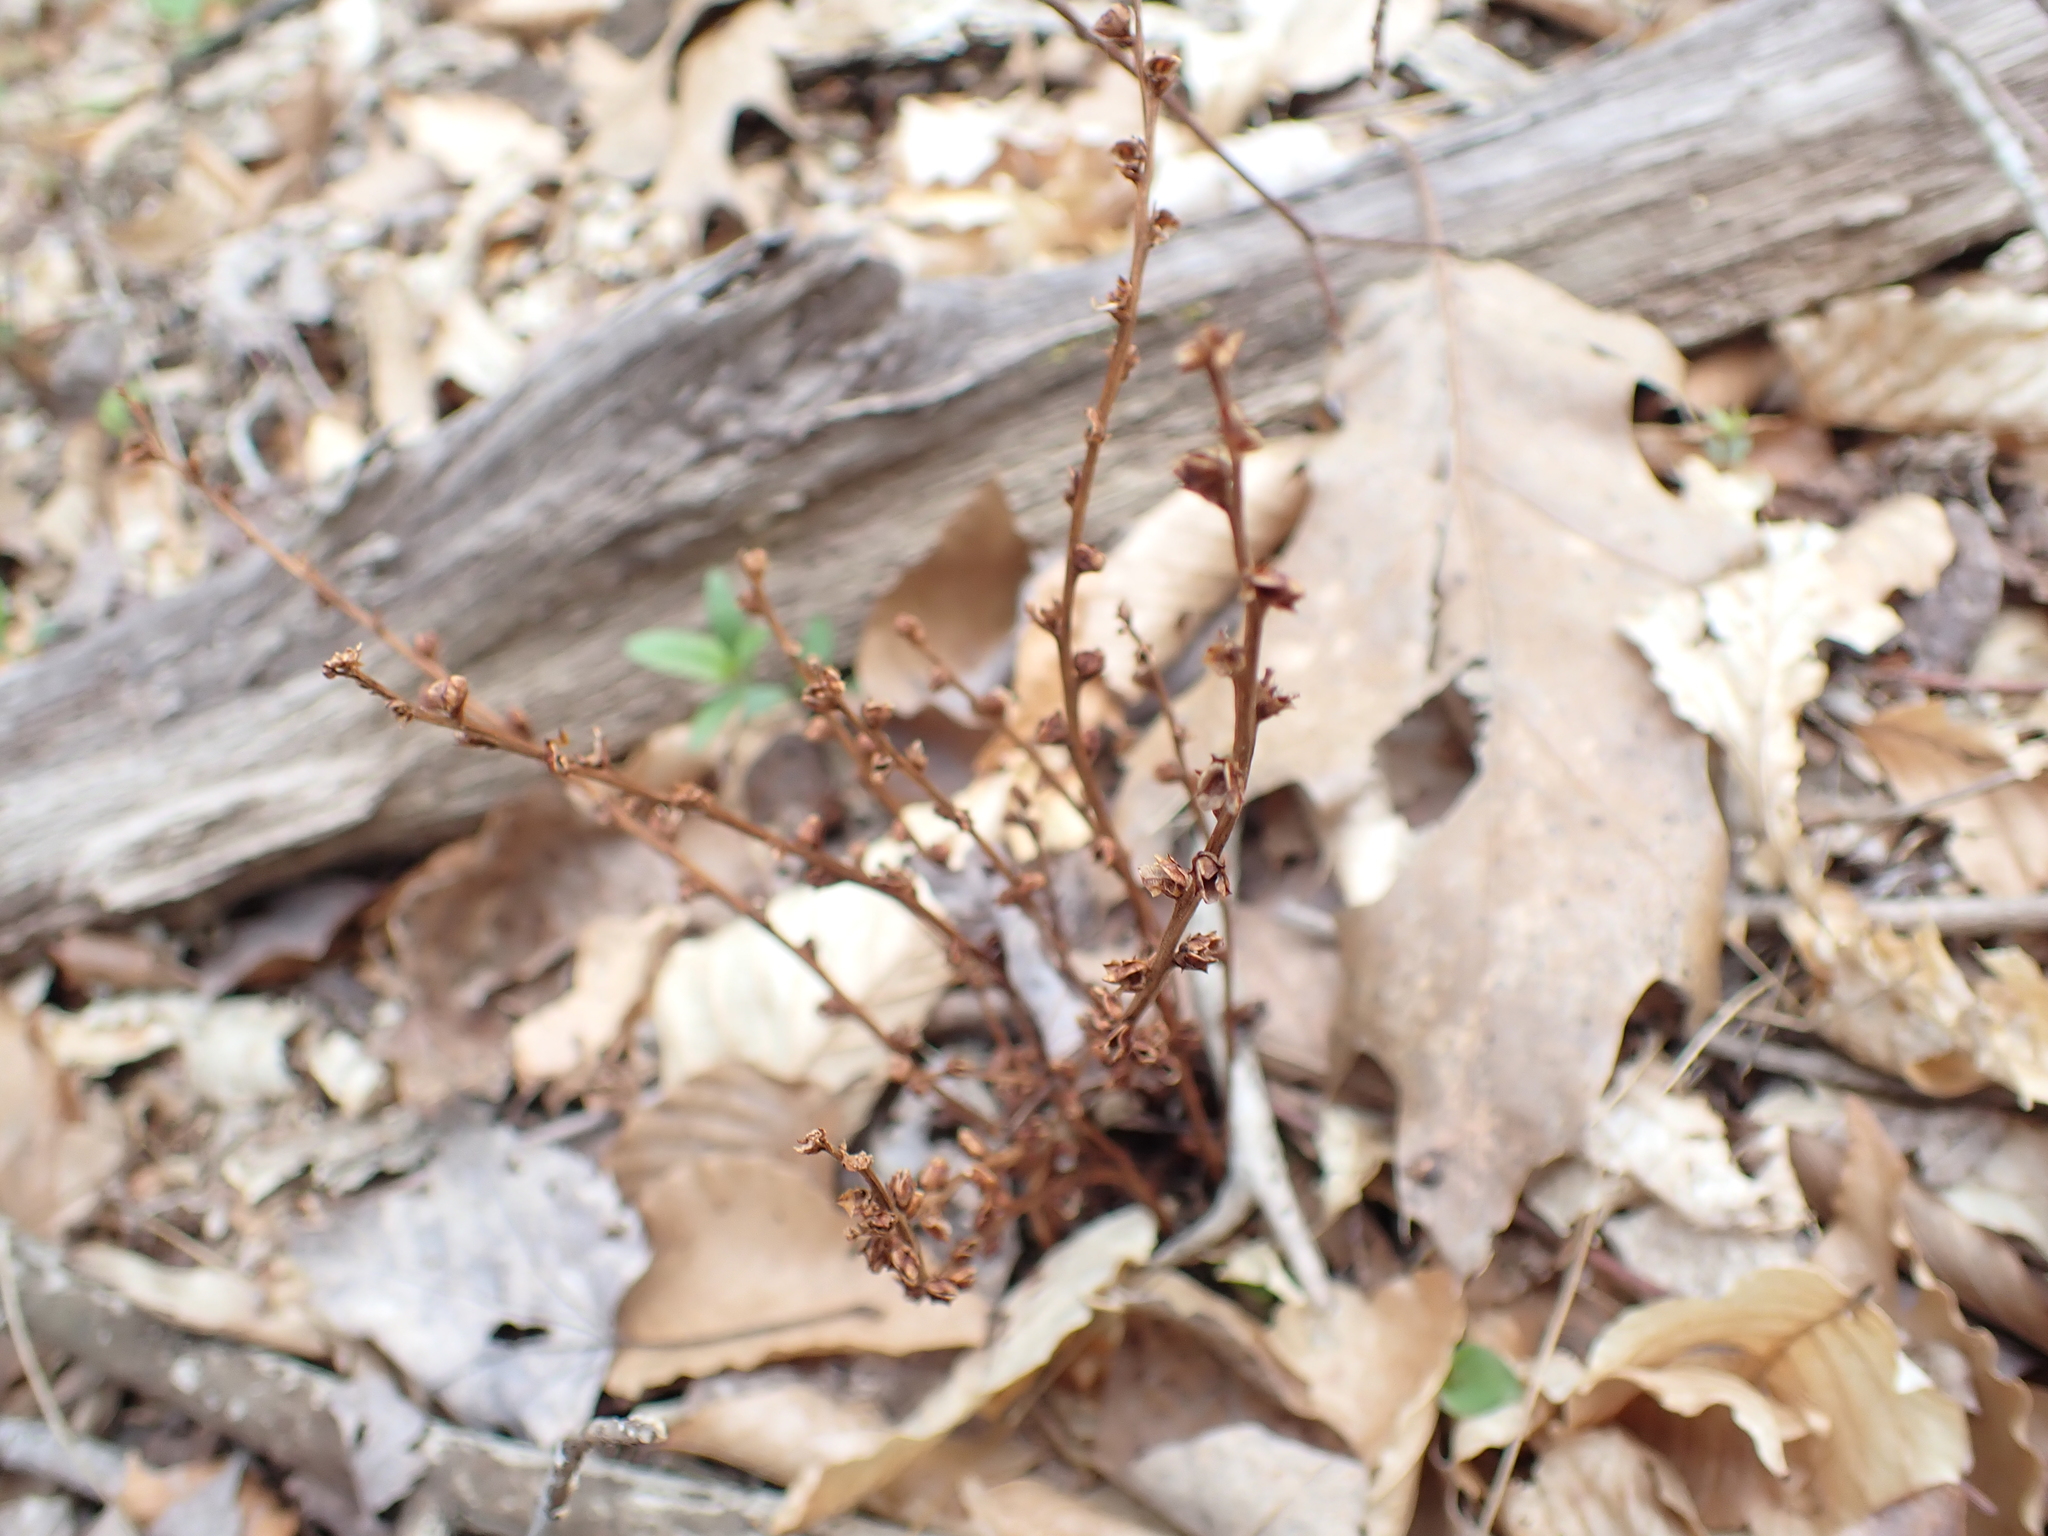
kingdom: Plantae
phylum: Tracheophyta
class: Magnoliopsida
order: Lamiales
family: Orobanchaceae
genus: Epifagus
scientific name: Epifagus virginiana
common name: Beechdrops
